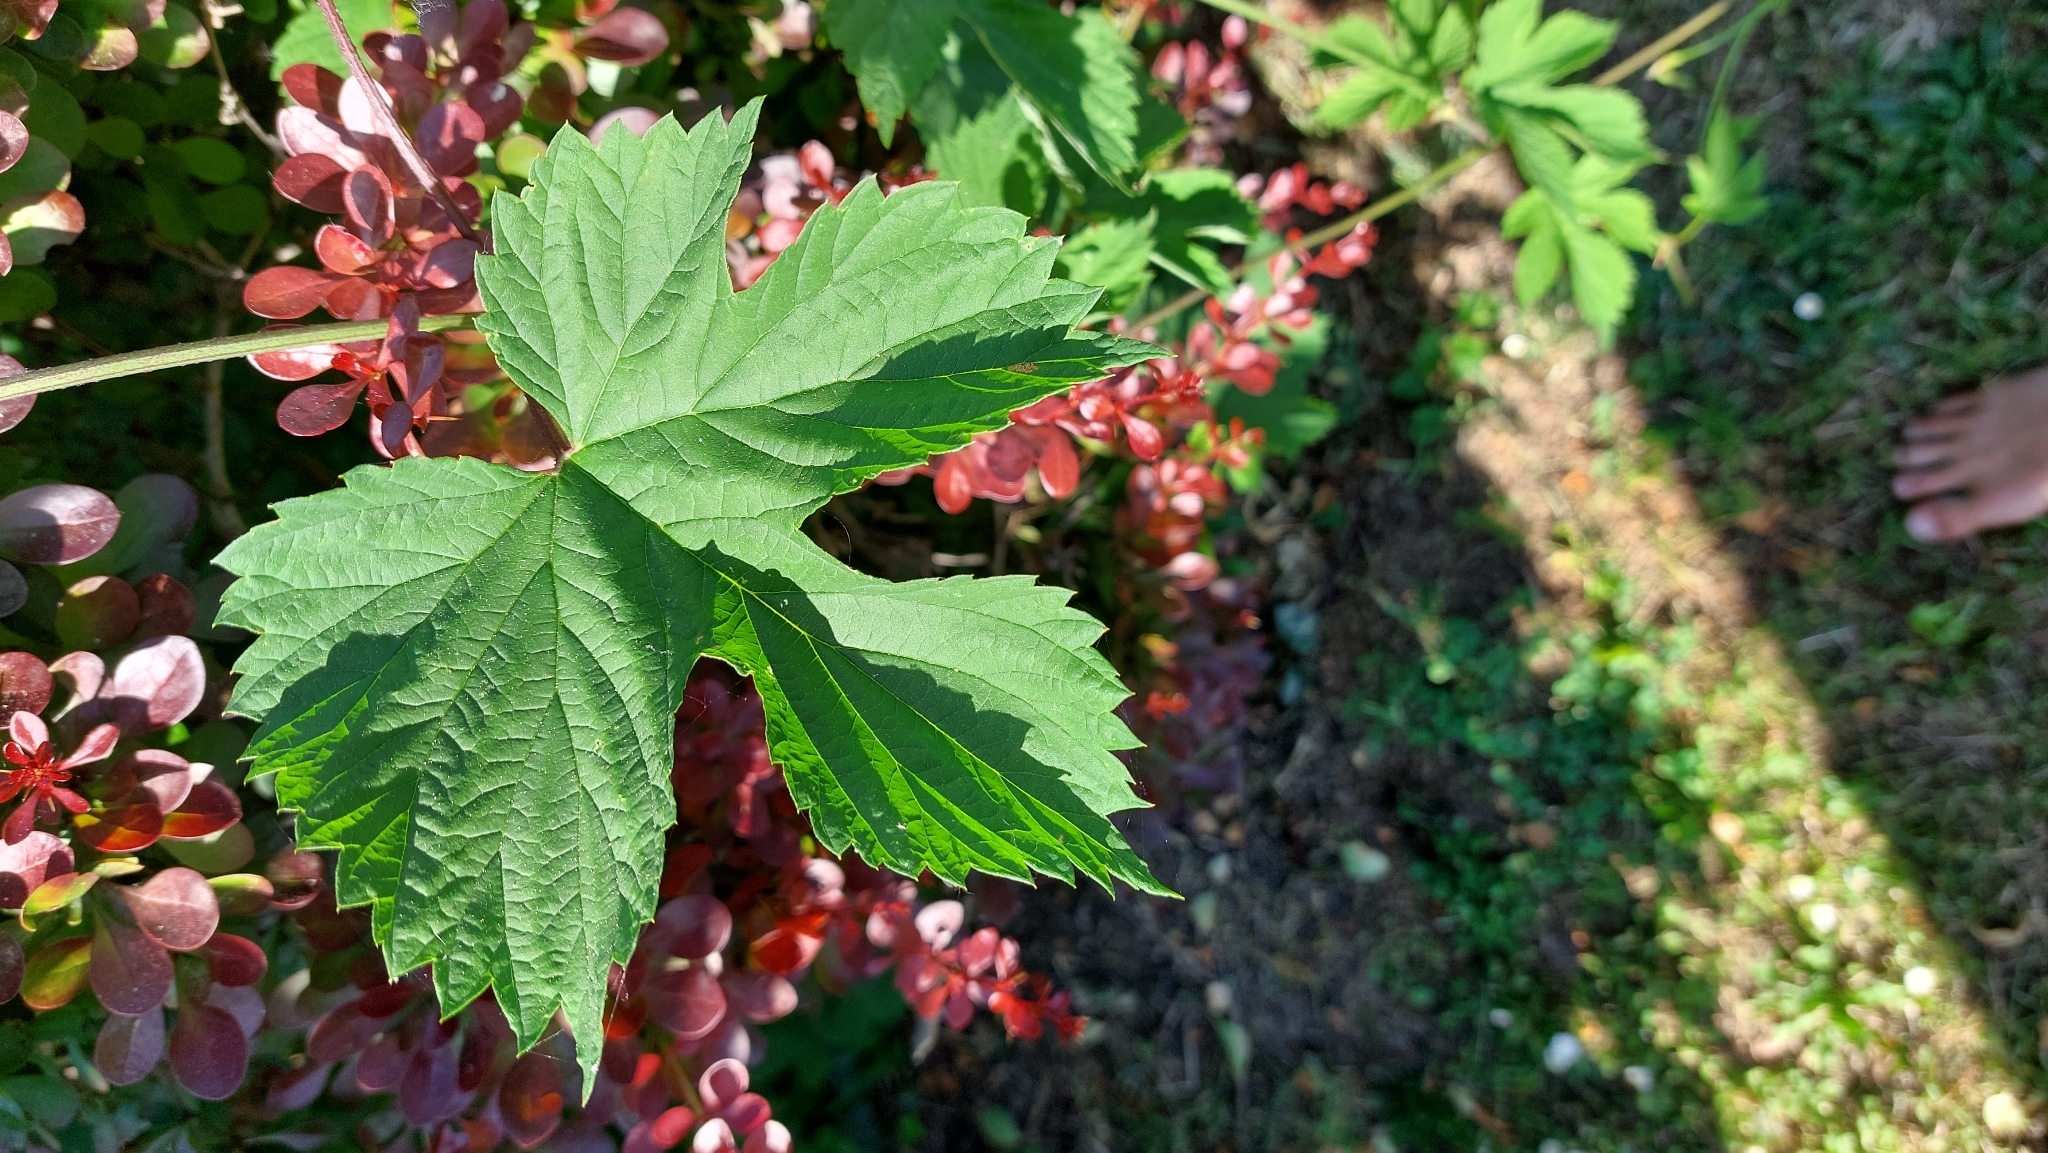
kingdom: Plantae
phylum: Tracheophyta
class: Magnoliopsida
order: Rosales
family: Cannabaceae
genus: Humulus
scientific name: Humulus lupulus
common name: Hop
